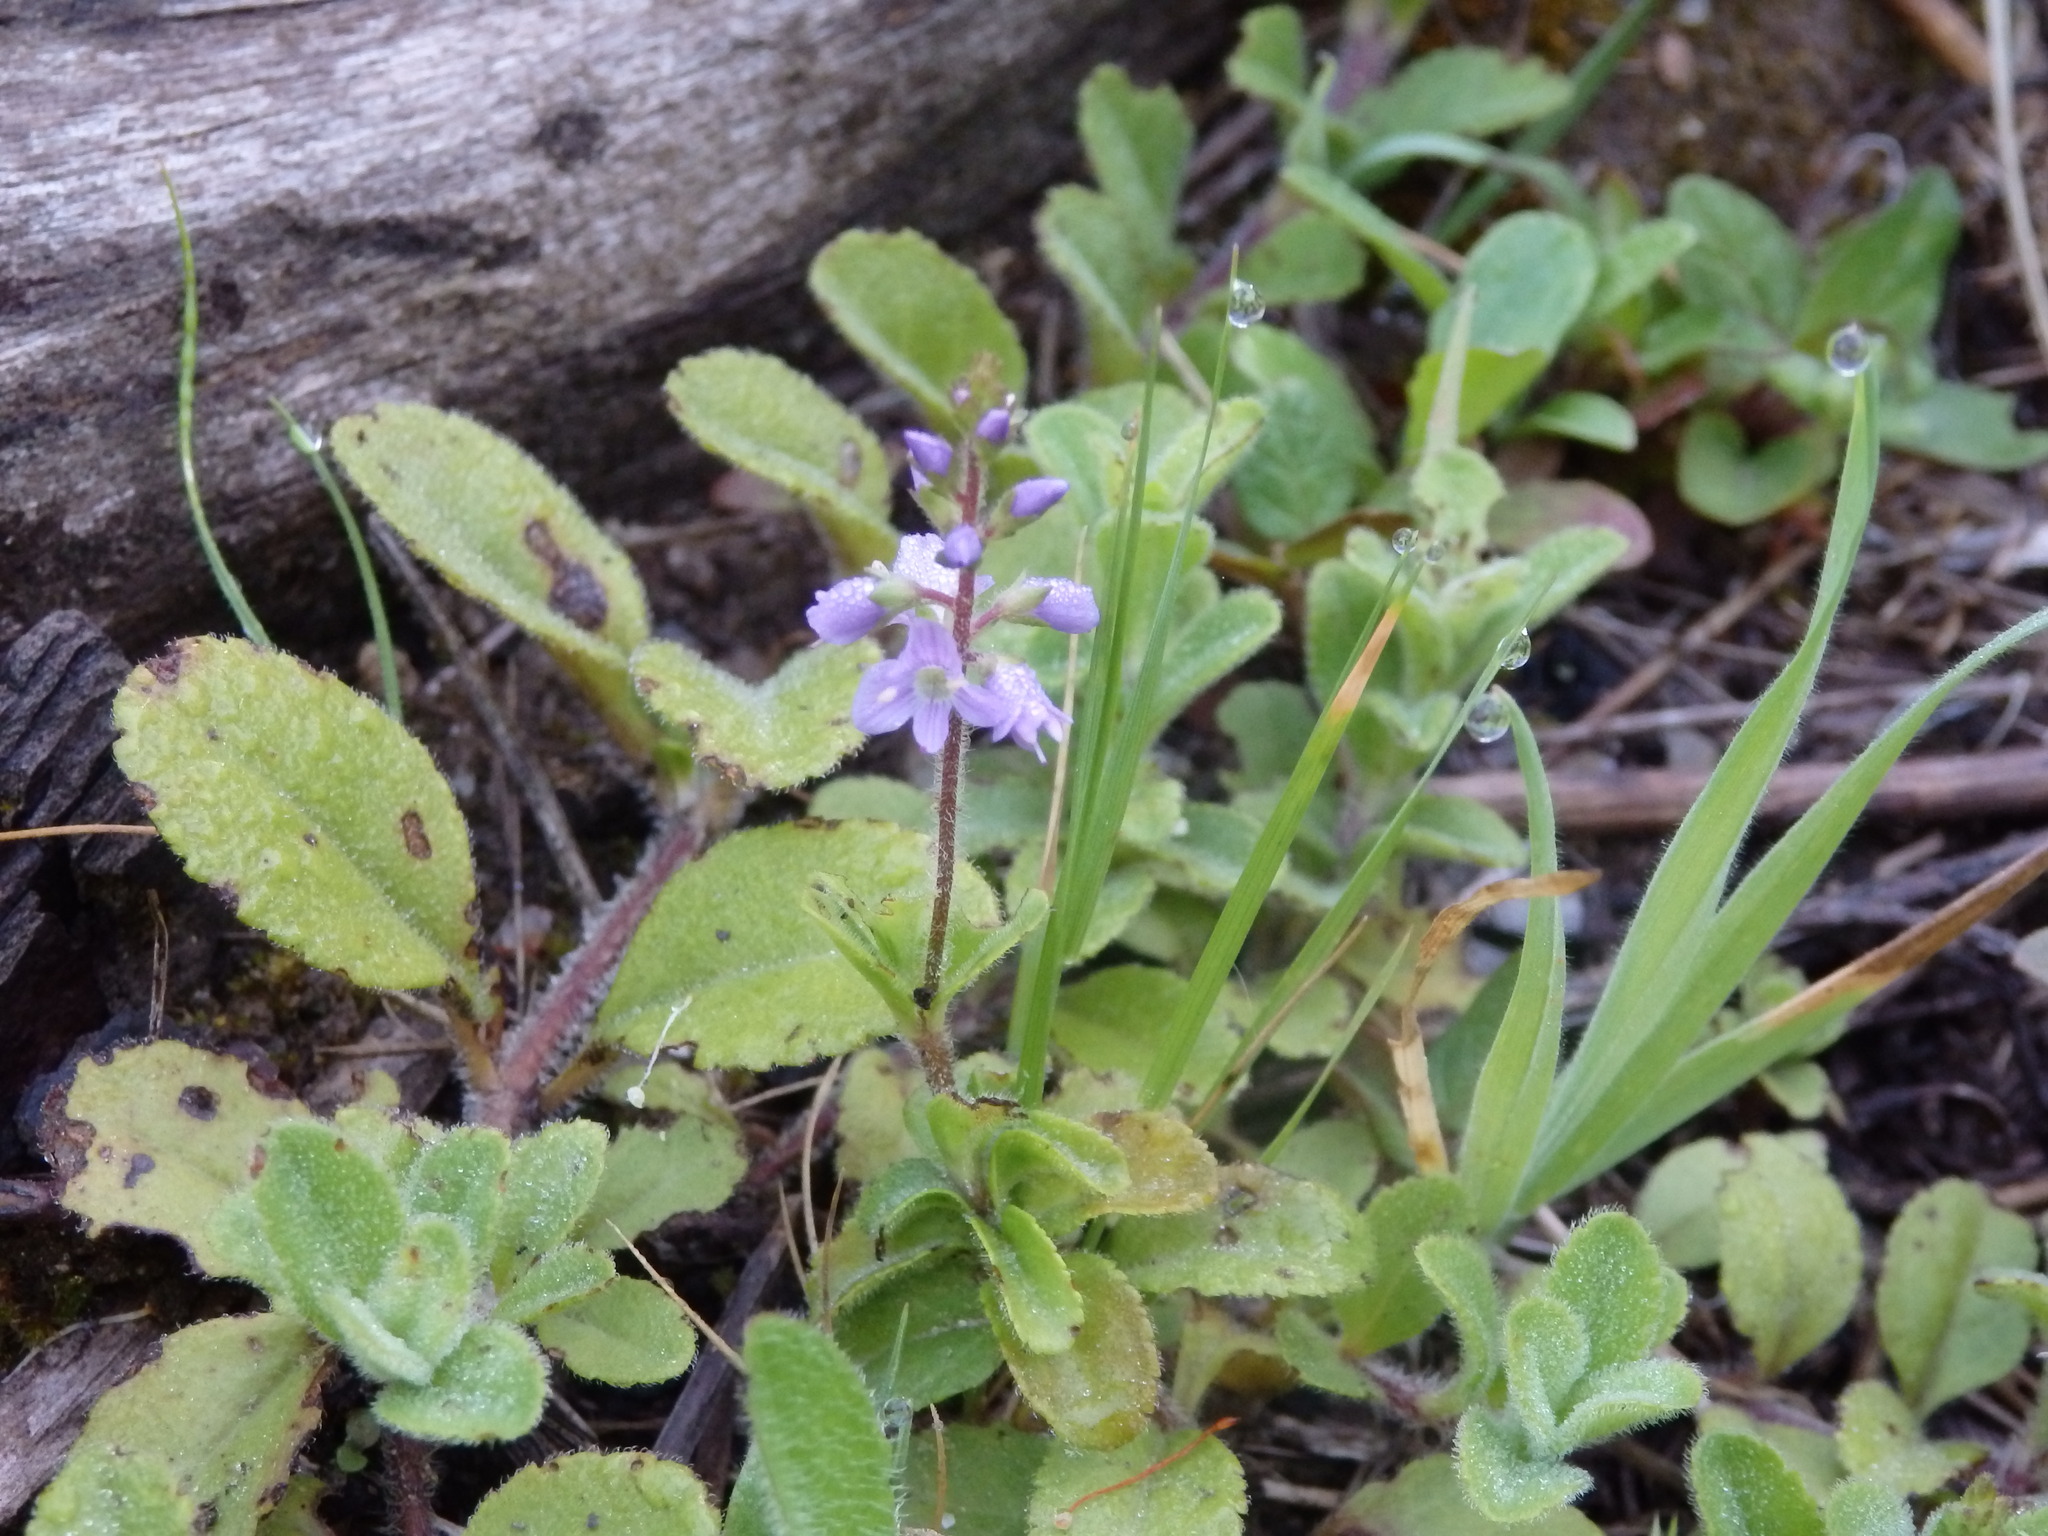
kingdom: Plantae
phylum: Tracheophyta
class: Magnoliopsida
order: Lamiales
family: Plantaginaceae
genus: Veronica
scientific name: Veronica officinalis
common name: Common speedwell
